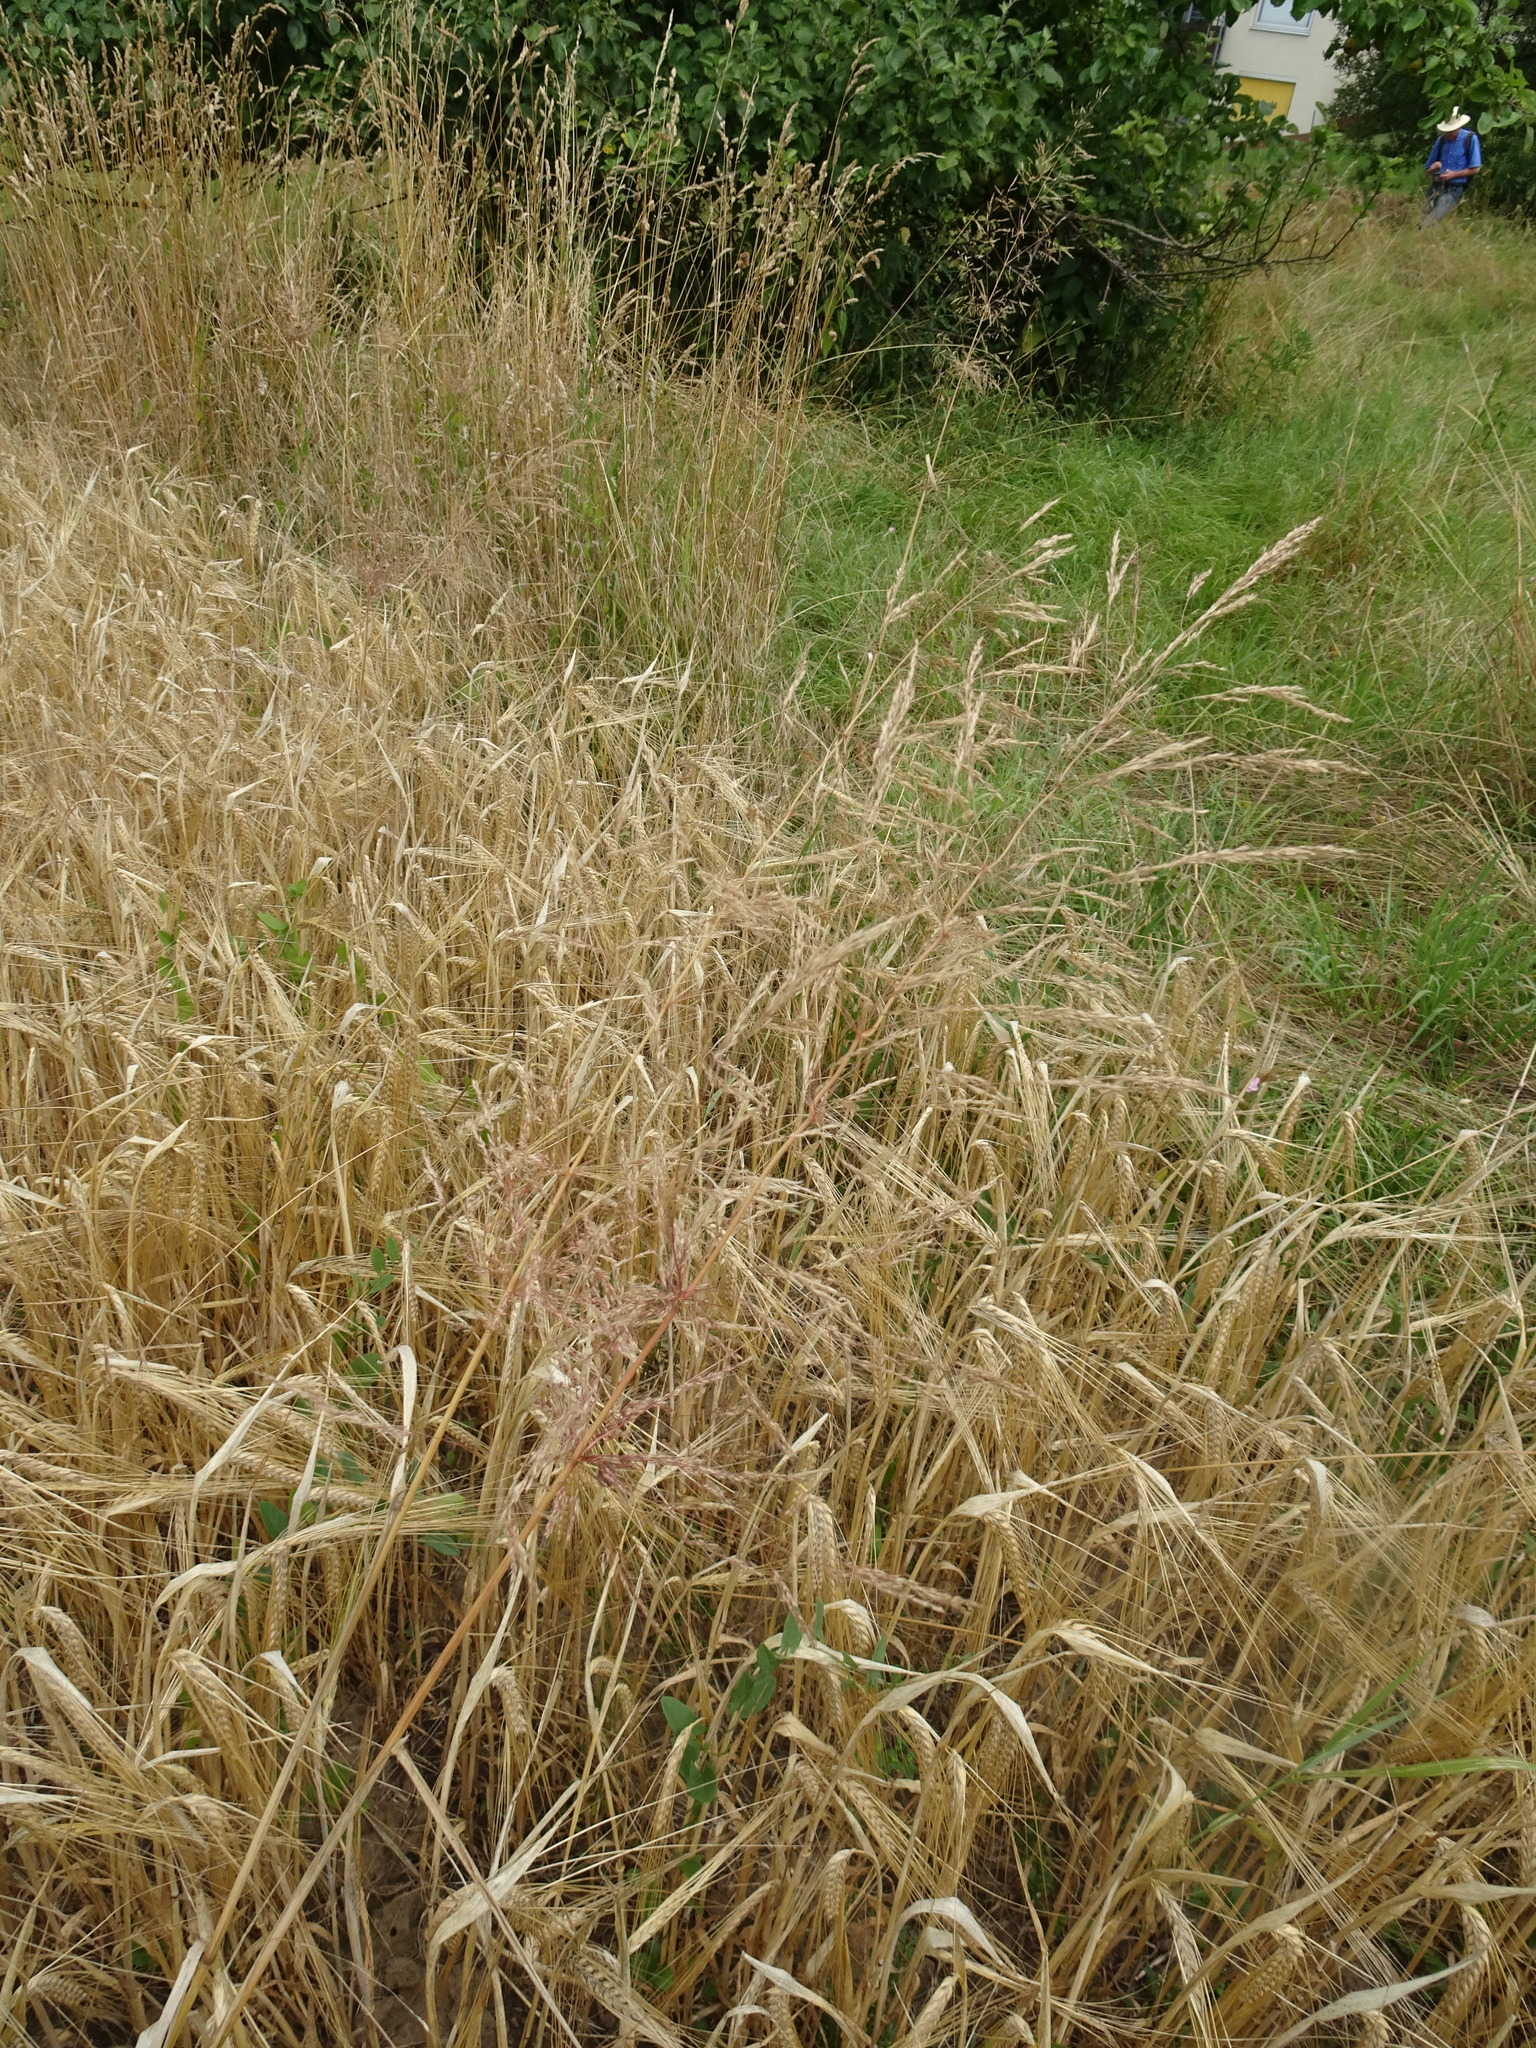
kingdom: Plantae
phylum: Tracheophyta
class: Liliopsida
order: Poales
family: Poaceae
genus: Apera
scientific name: Apera spica-venti
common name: Loose silky-bent
